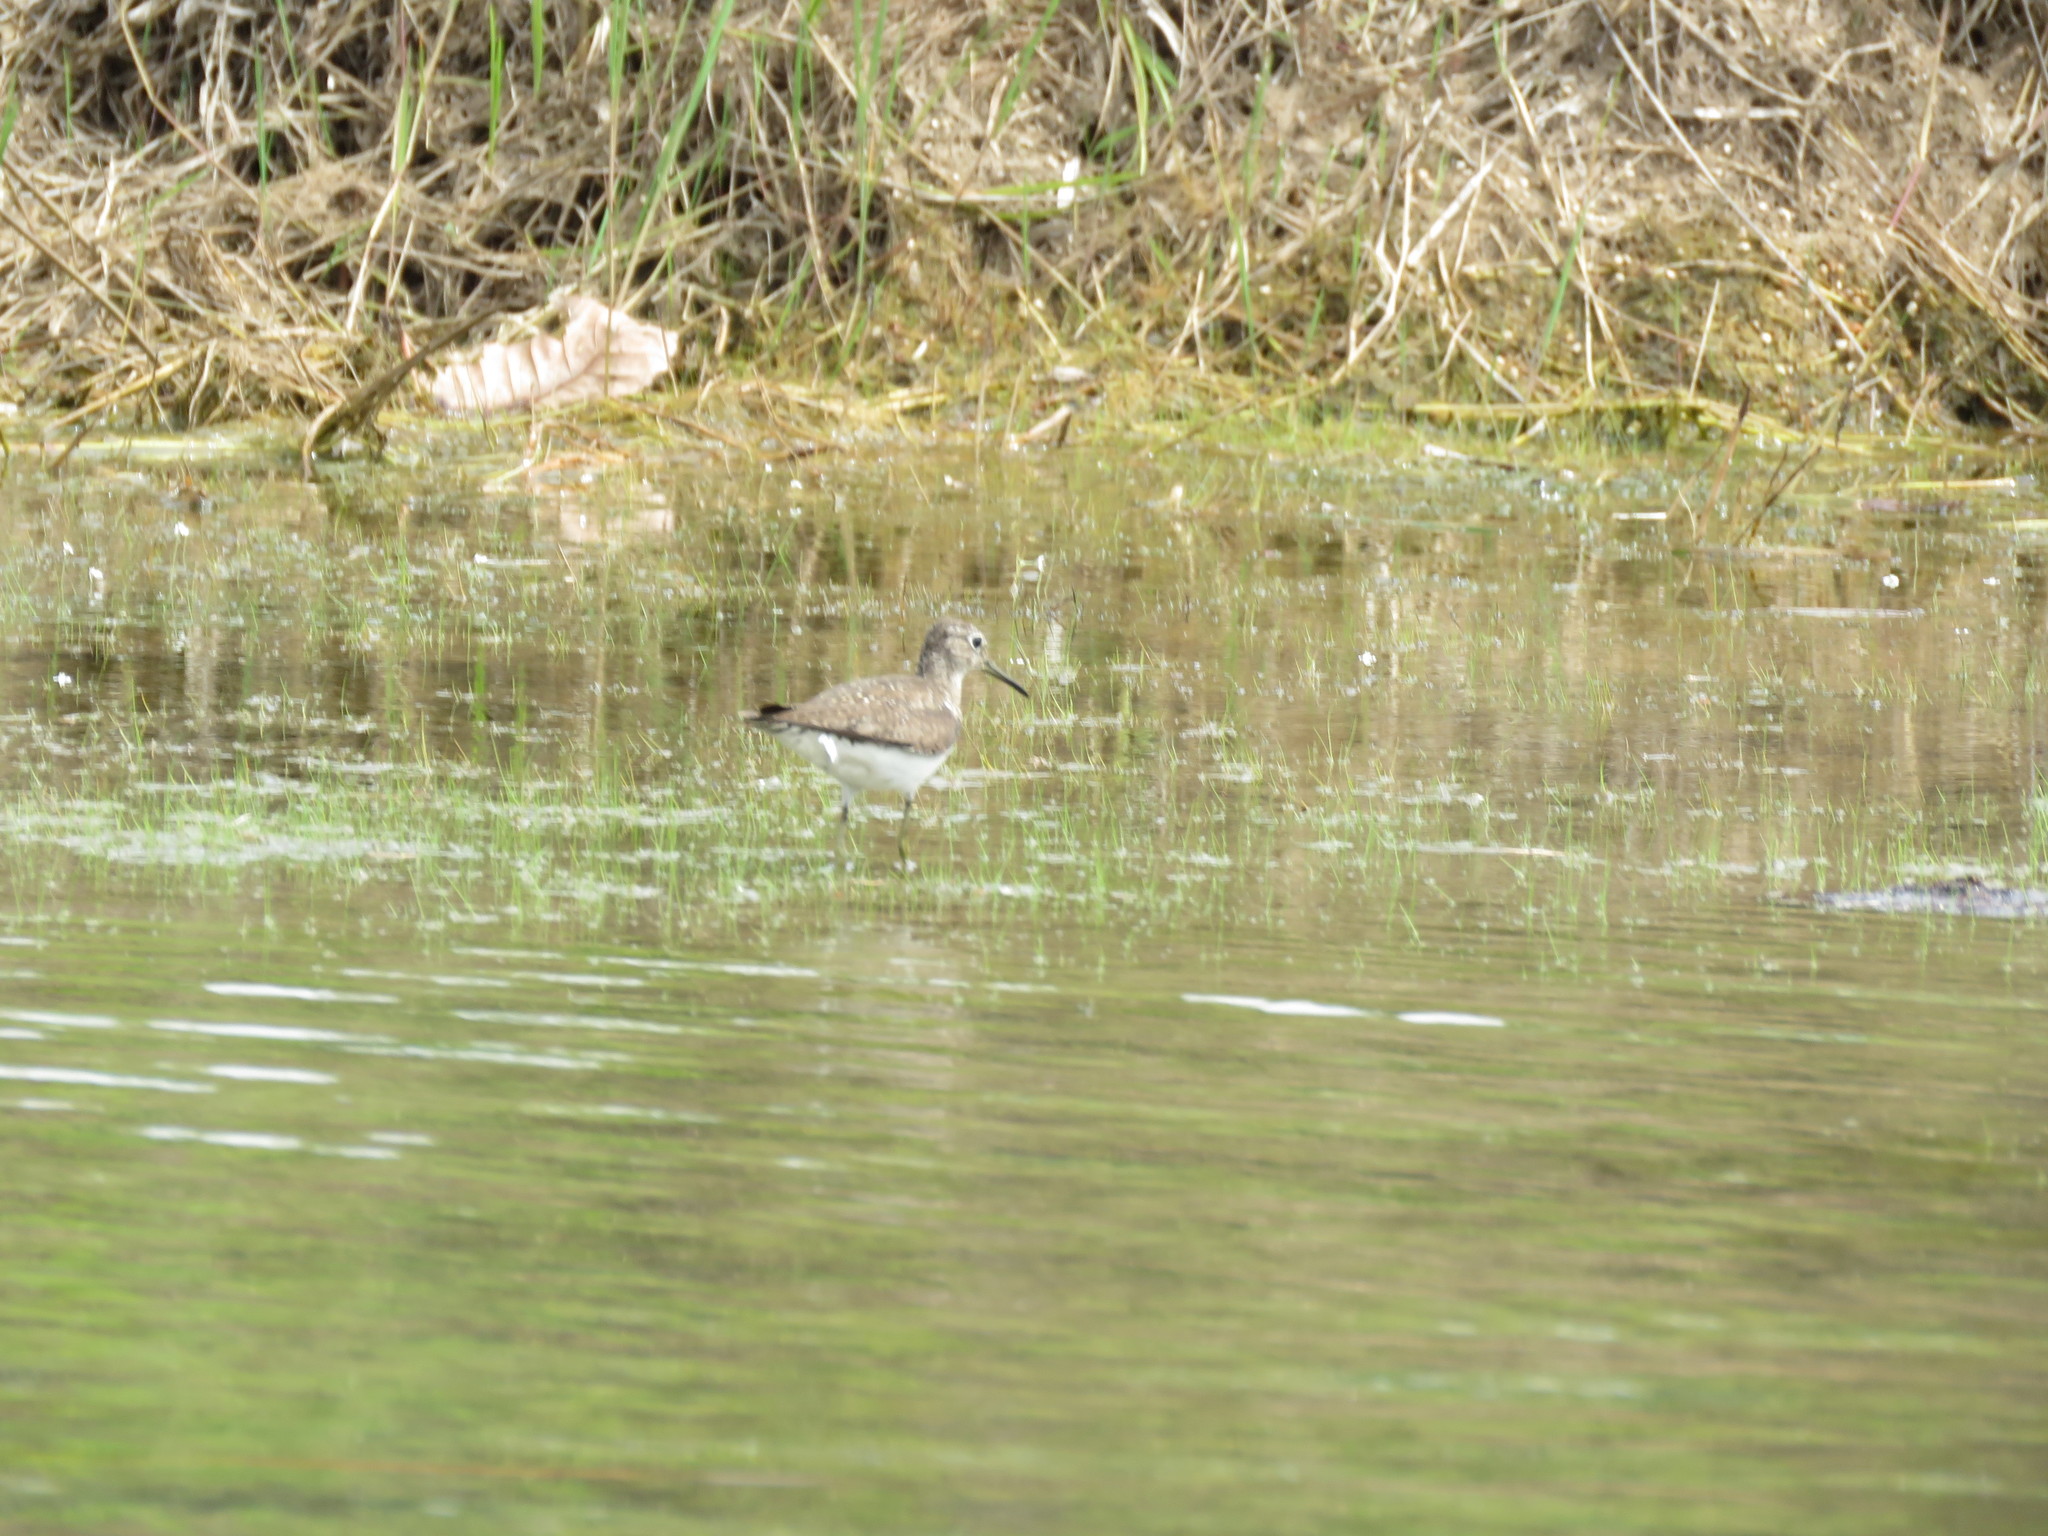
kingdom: Animalia
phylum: Chordata
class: Aves
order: Charadriiformes
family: Scolopacidae
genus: Tringa
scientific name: Tringa solitaria
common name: Solitary sandpiper
